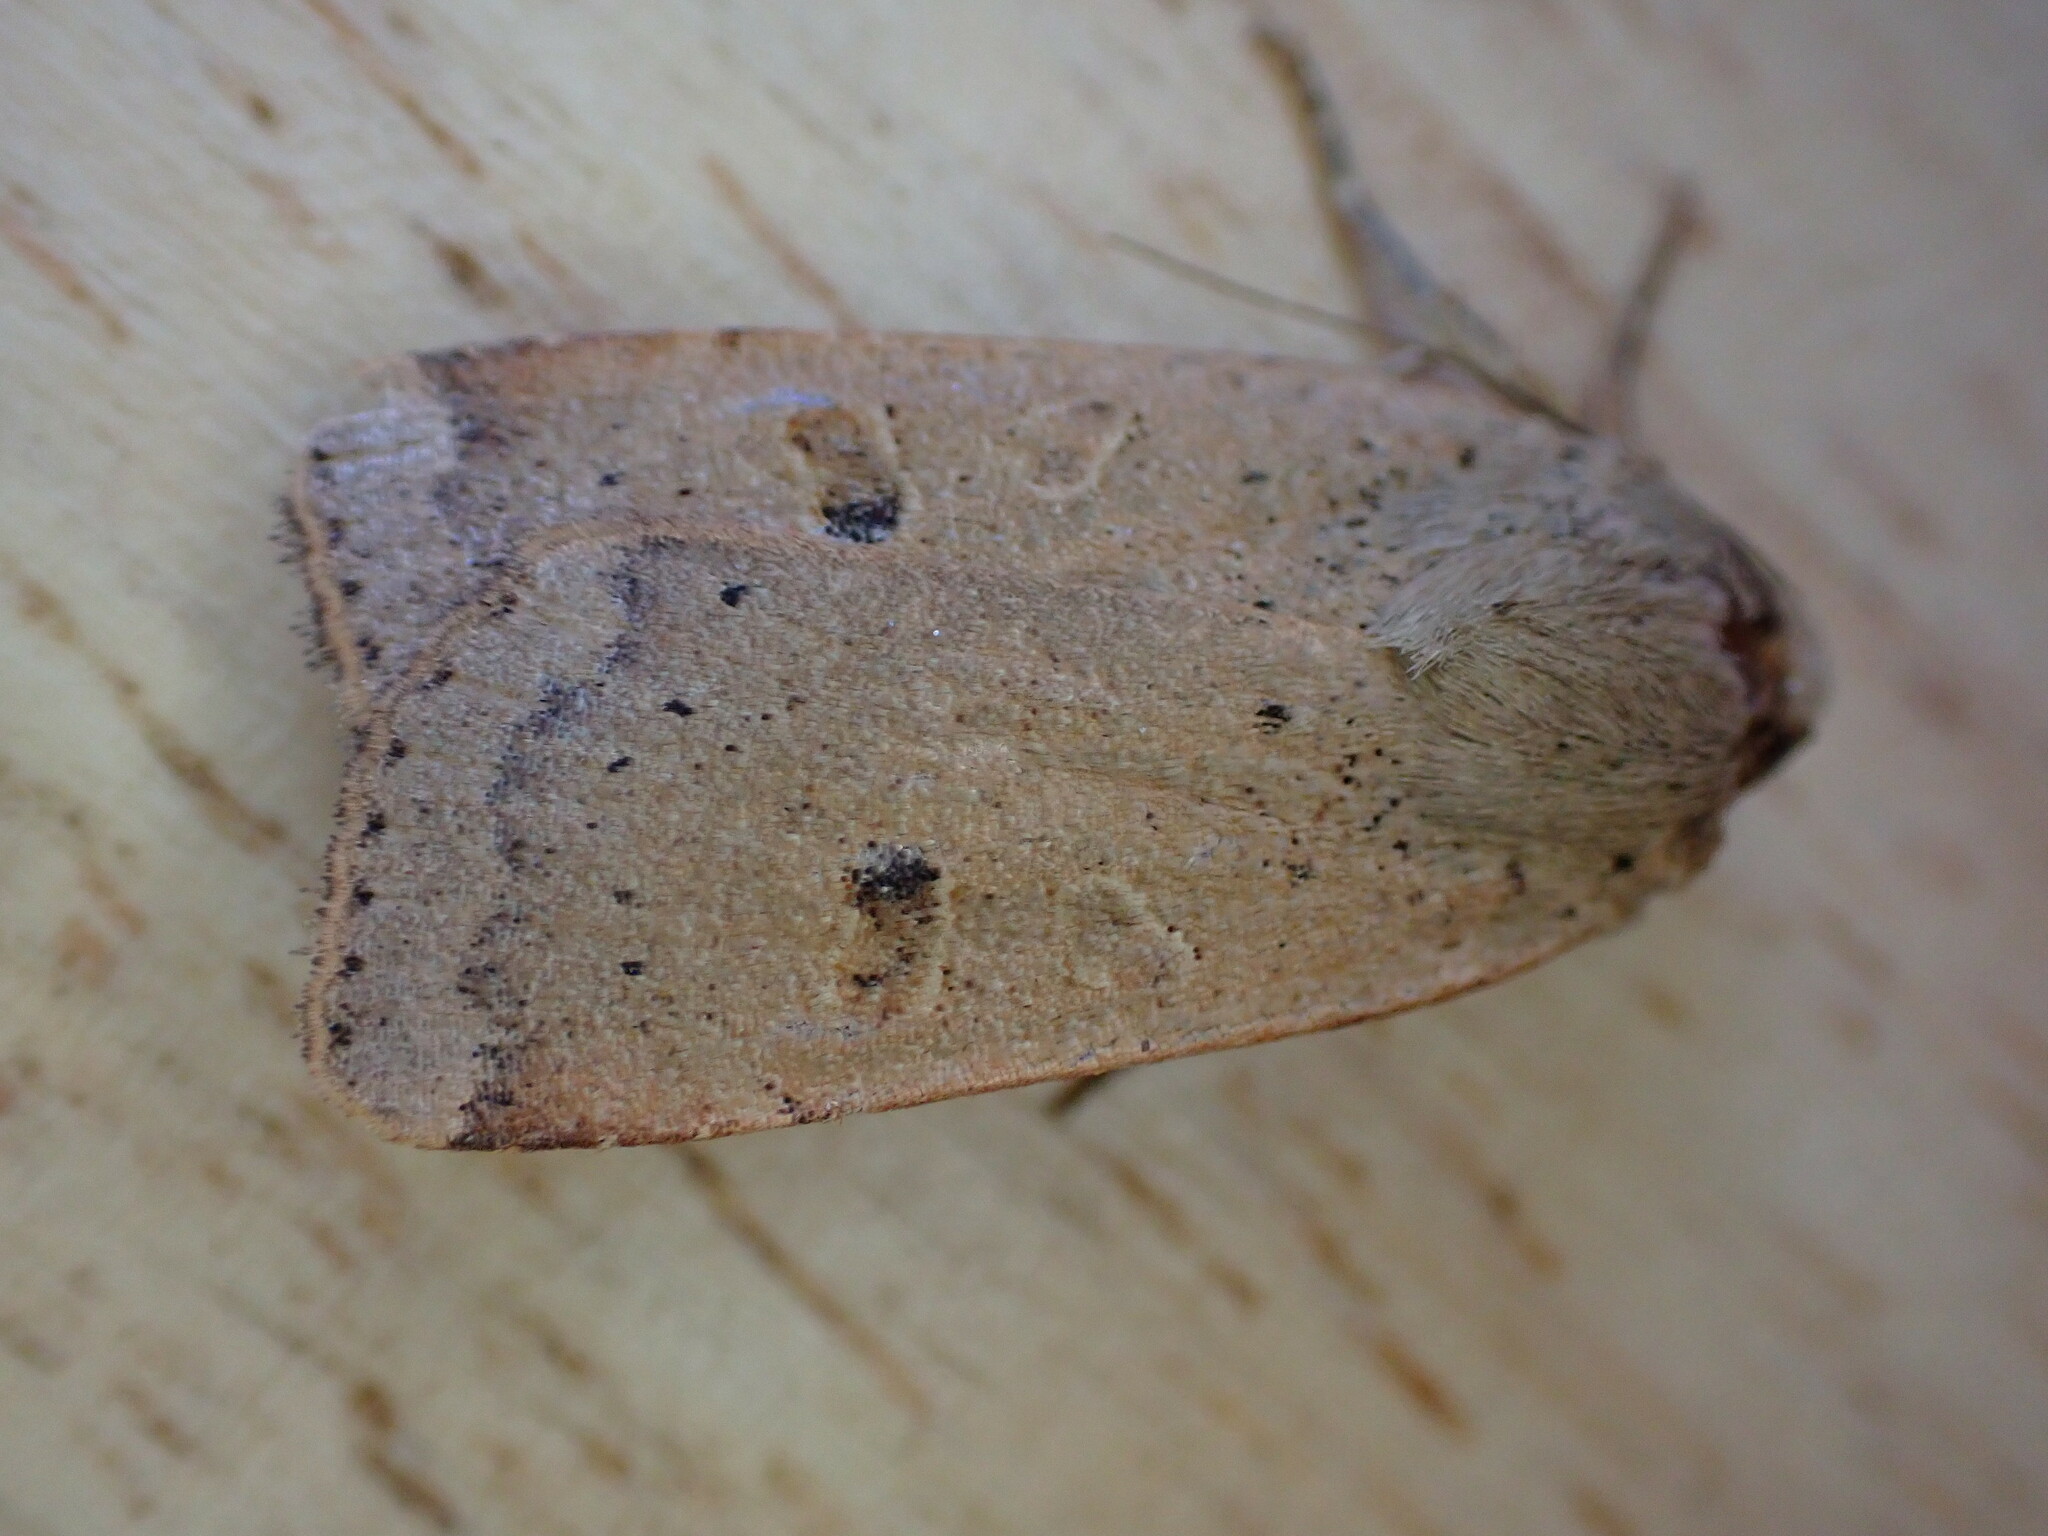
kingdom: Animalia
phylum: Arthropoda
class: Insecta
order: Lepidoptera
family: Noctuidae
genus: Noctua
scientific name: Noctua comes
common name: Lesser yellow underwing
